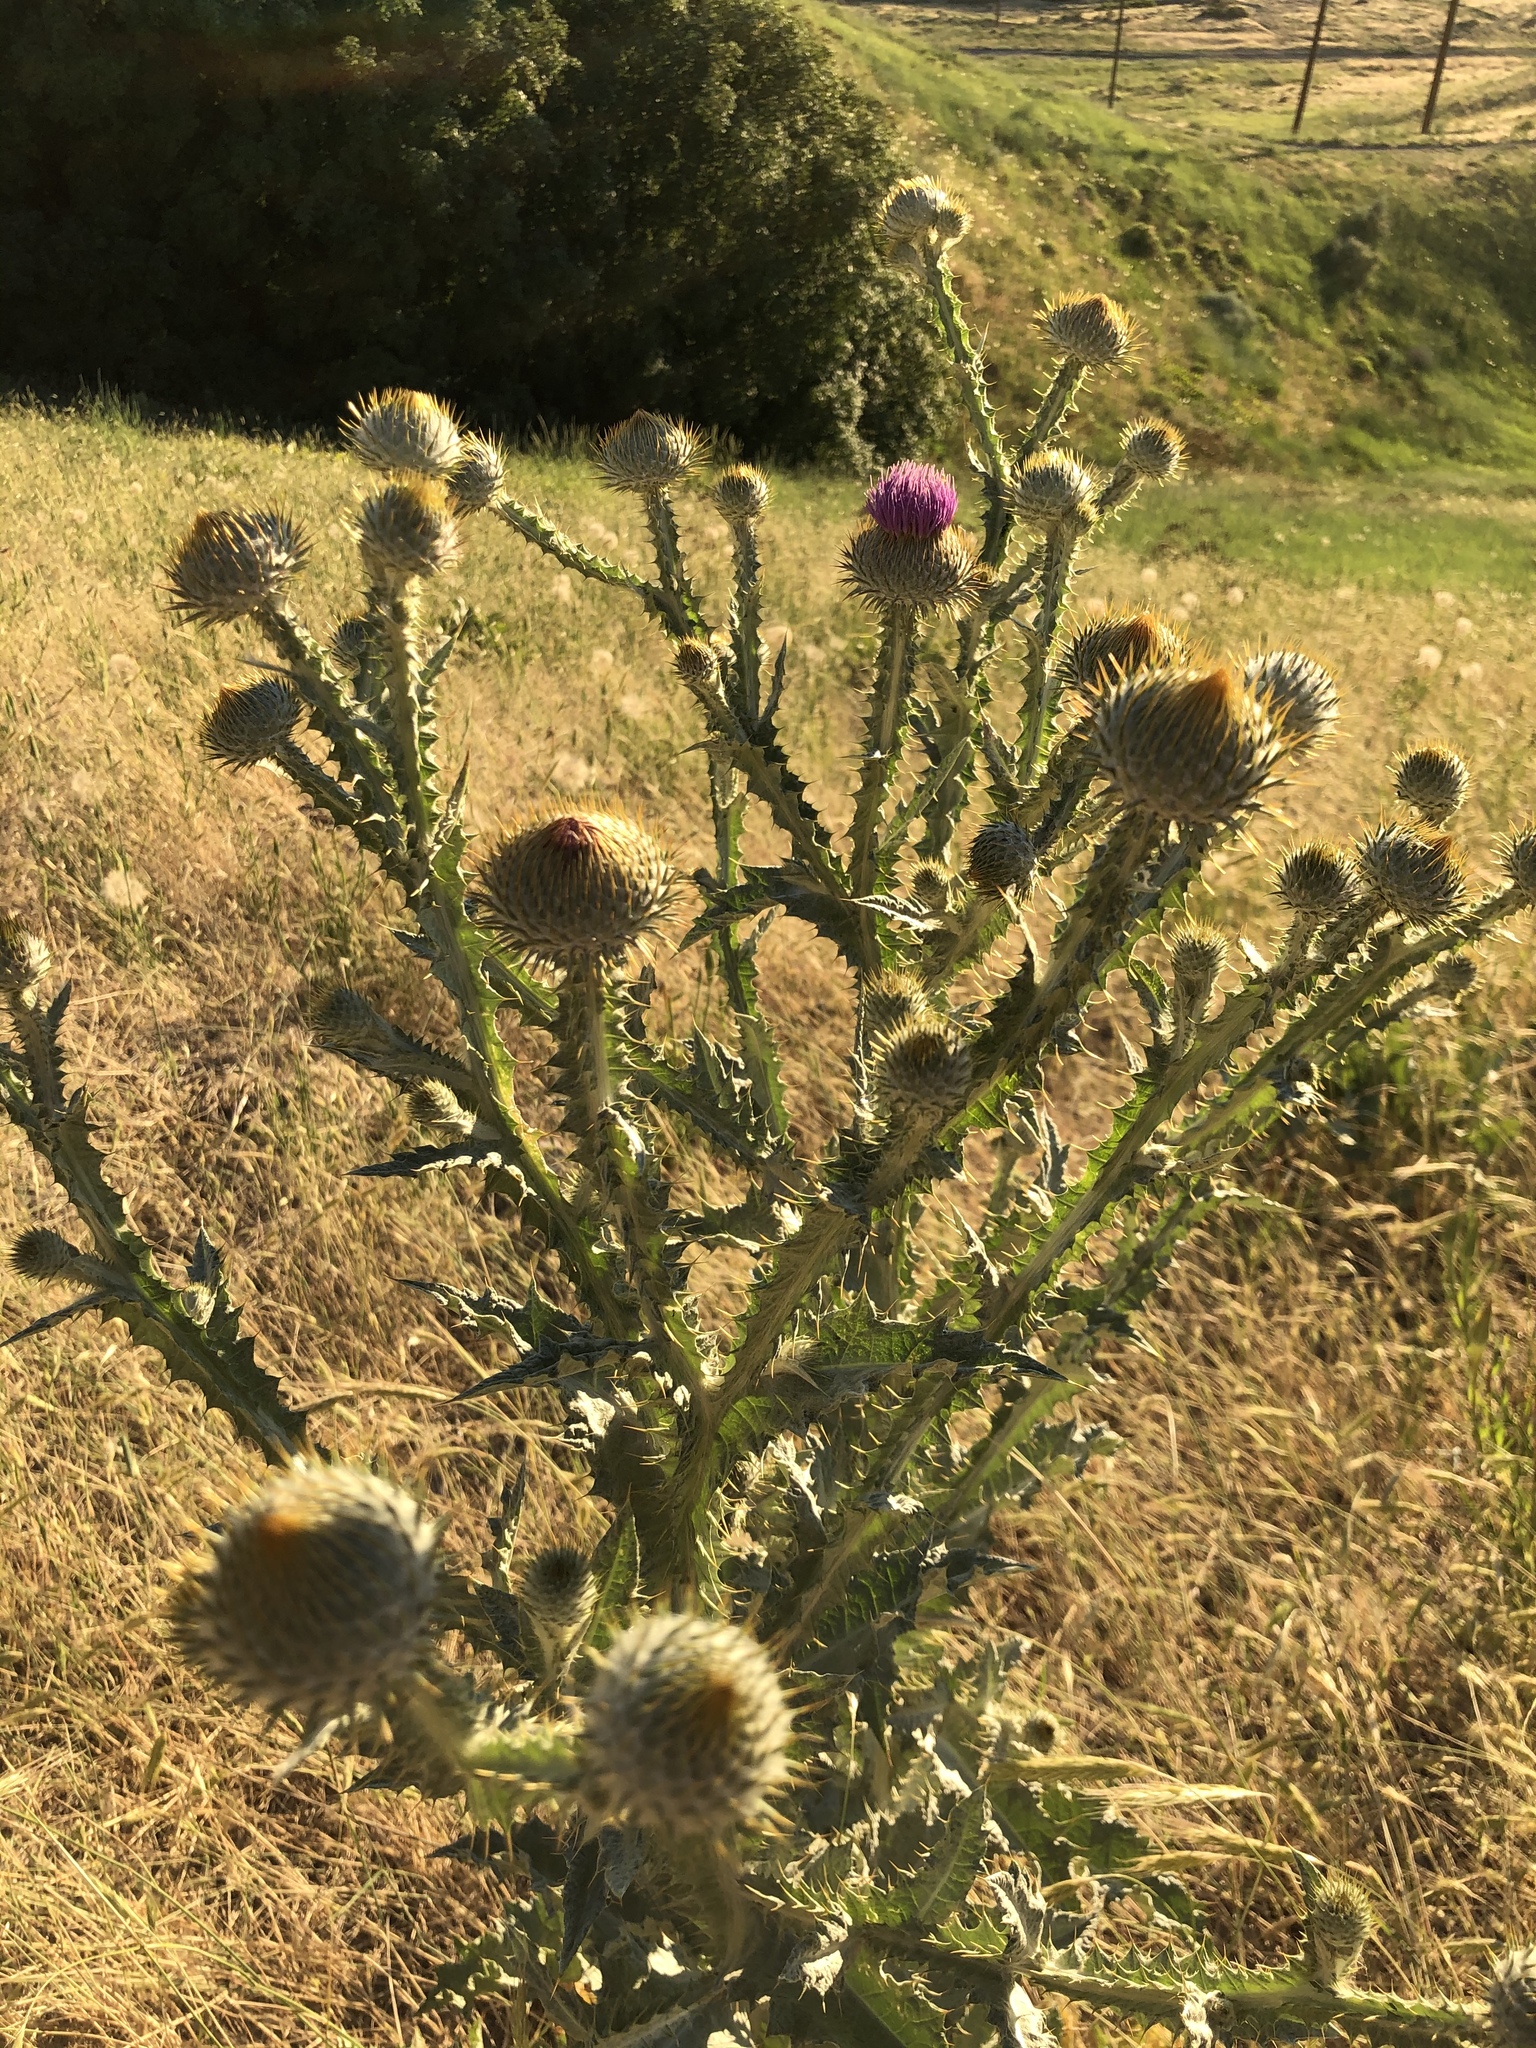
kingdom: Plantae
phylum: Tracheophyta
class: Magnoliopsida
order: Asterales
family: Asteraceae
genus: Onopordum
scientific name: Onopordum acanthium
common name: Scotch thistle
